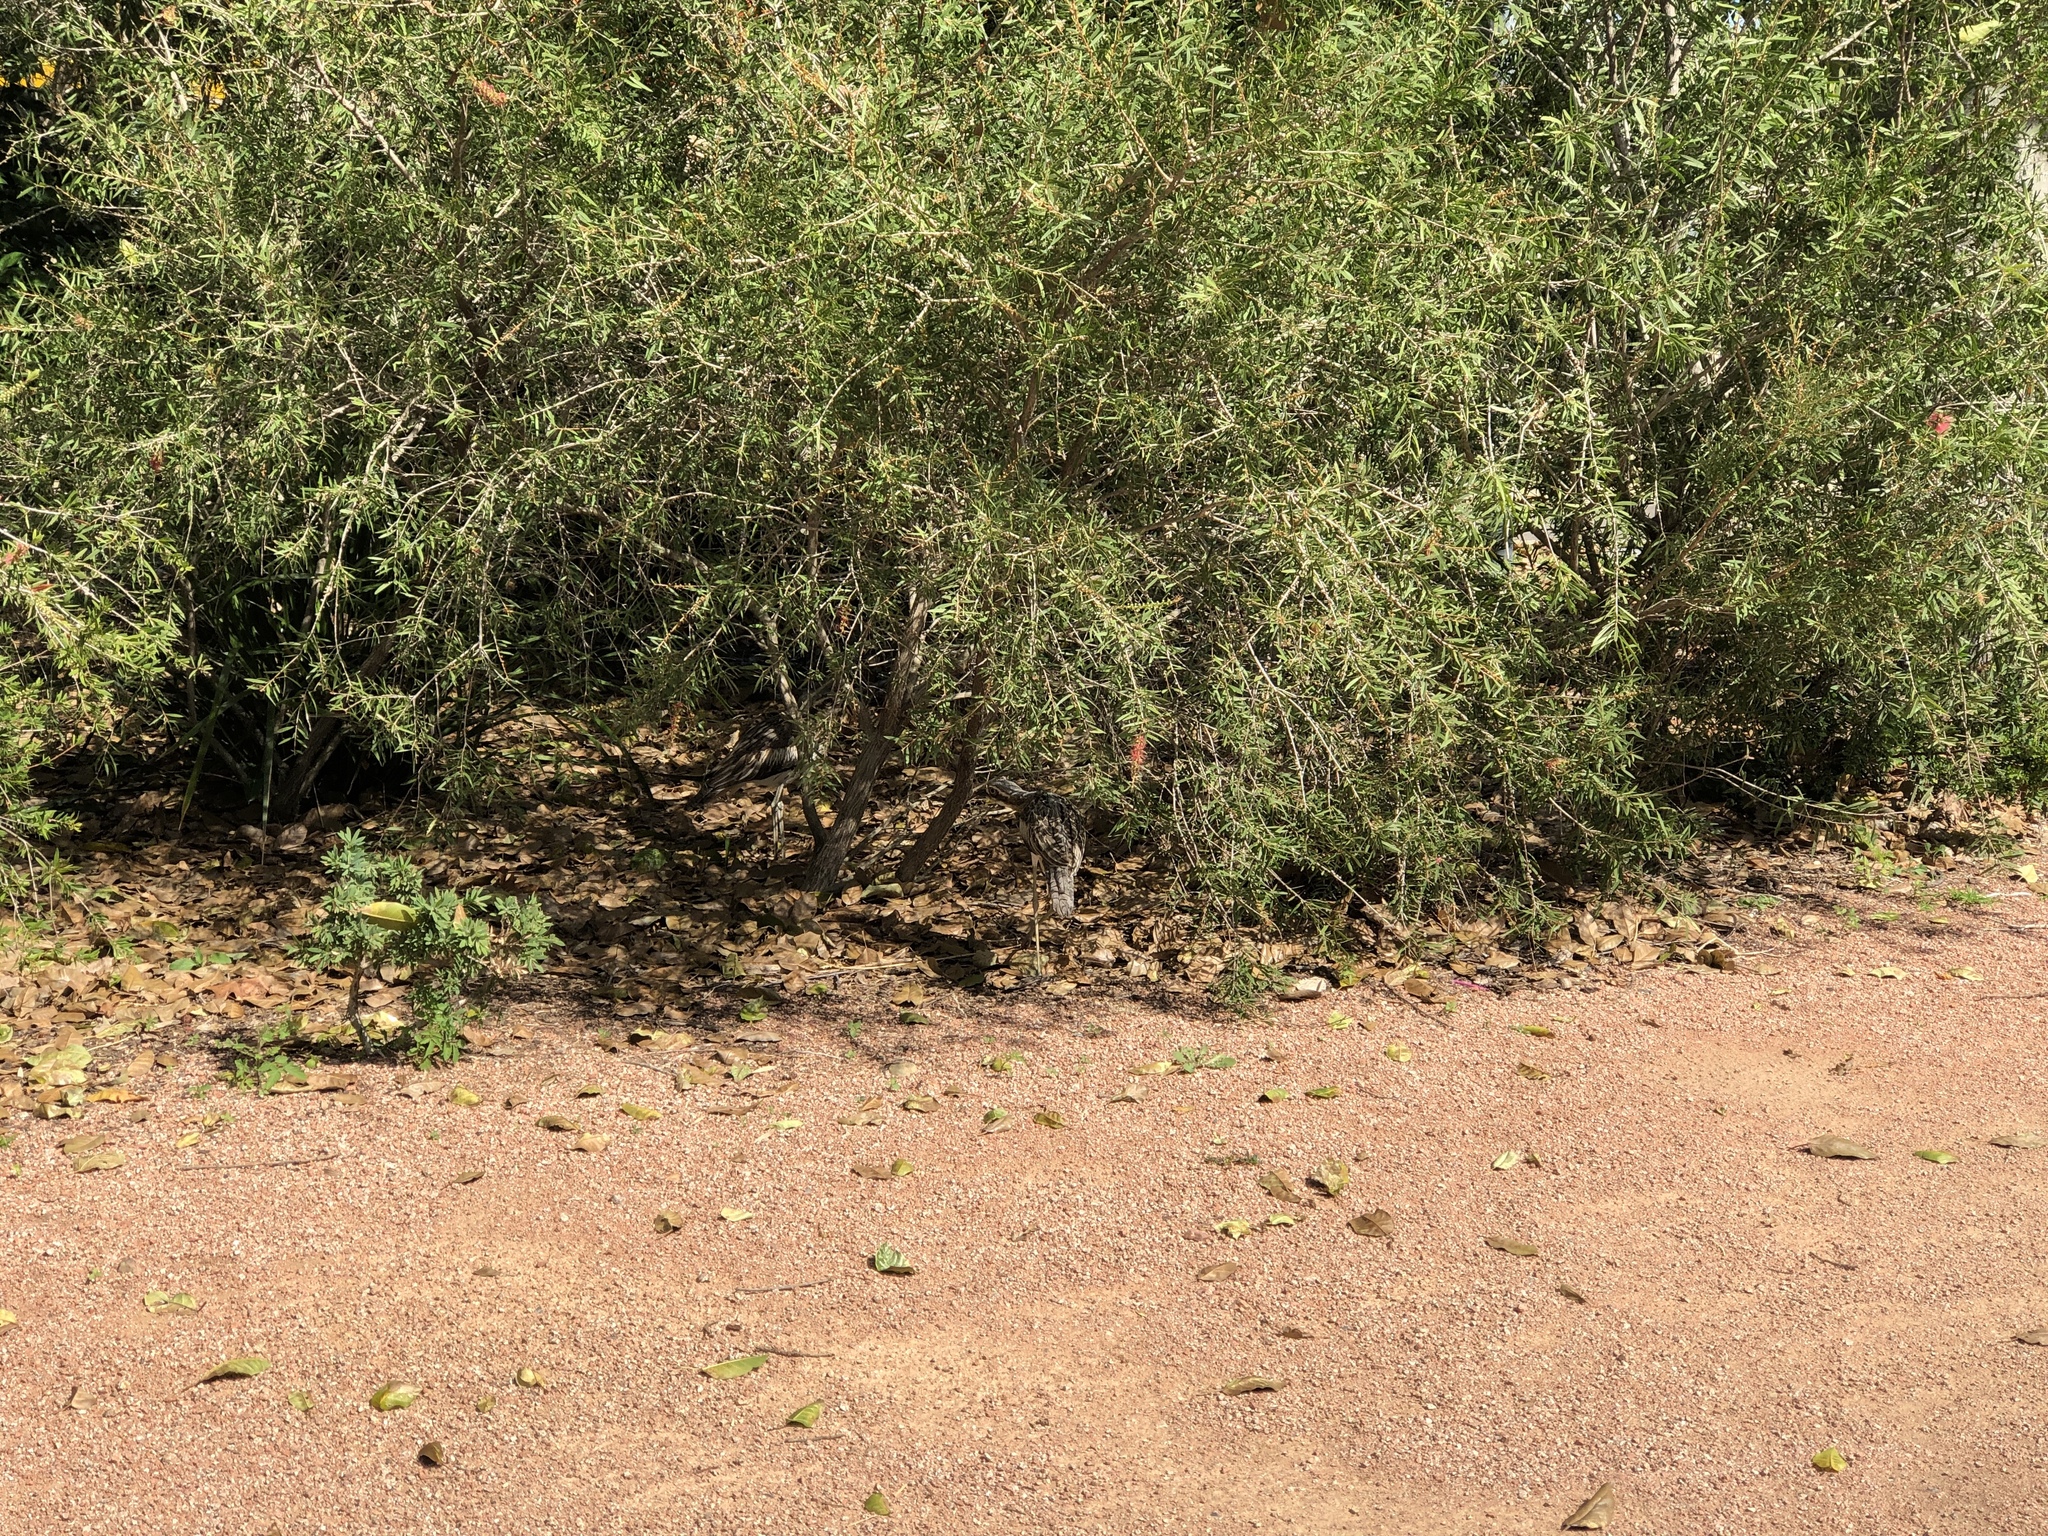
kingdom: Animalia
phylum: Chordata
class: Aves
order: Charadriiformes
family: Burhinidae
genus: Burhinus
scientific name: Burhinus grallarius
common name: Bush stone-curlew
